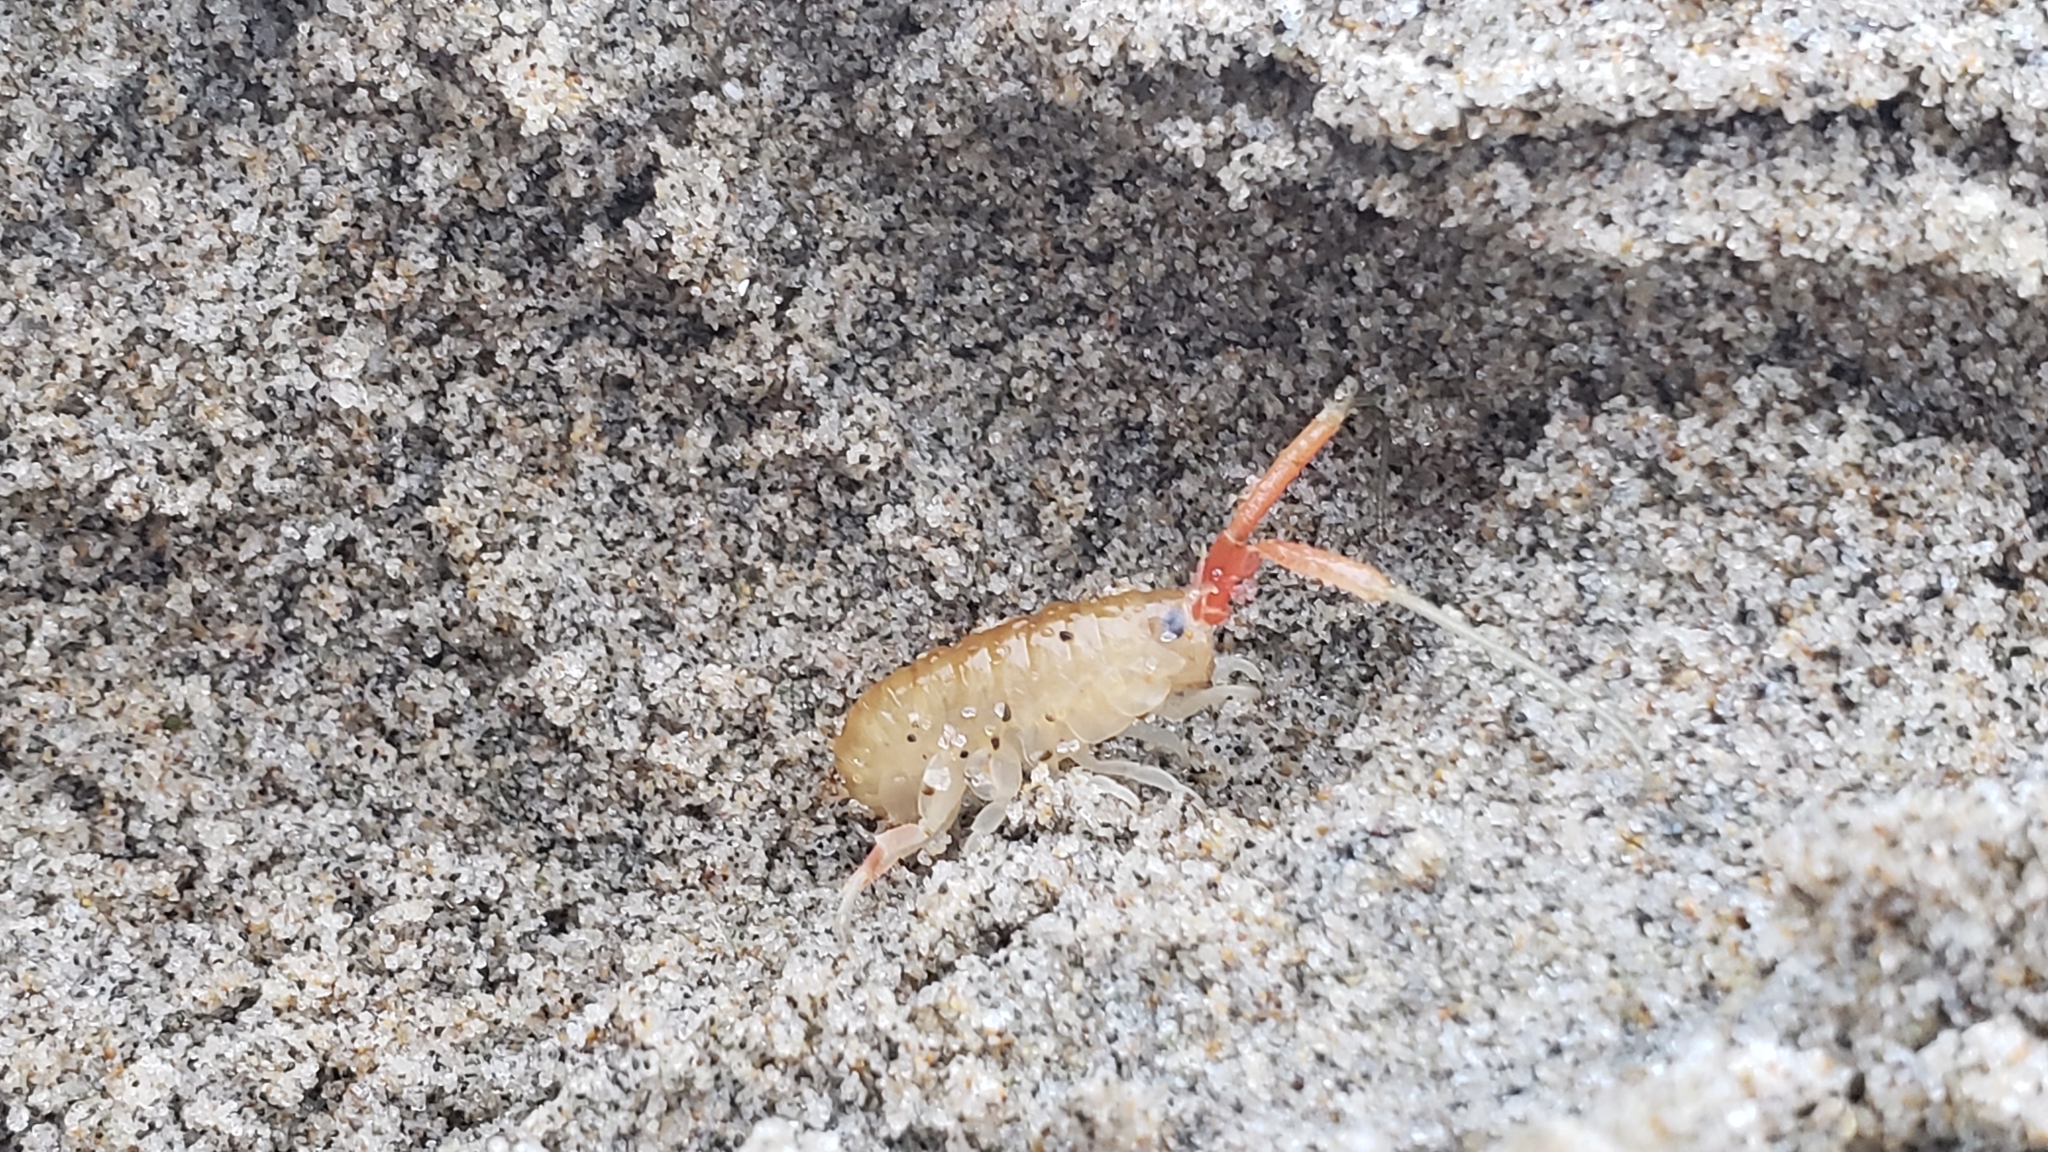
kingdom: Animalia
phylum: Arthropoda
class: Malacostraca
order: Amphipoda
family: Talitridae
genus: Megalorchestia
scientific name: Megalorchestia californiana
